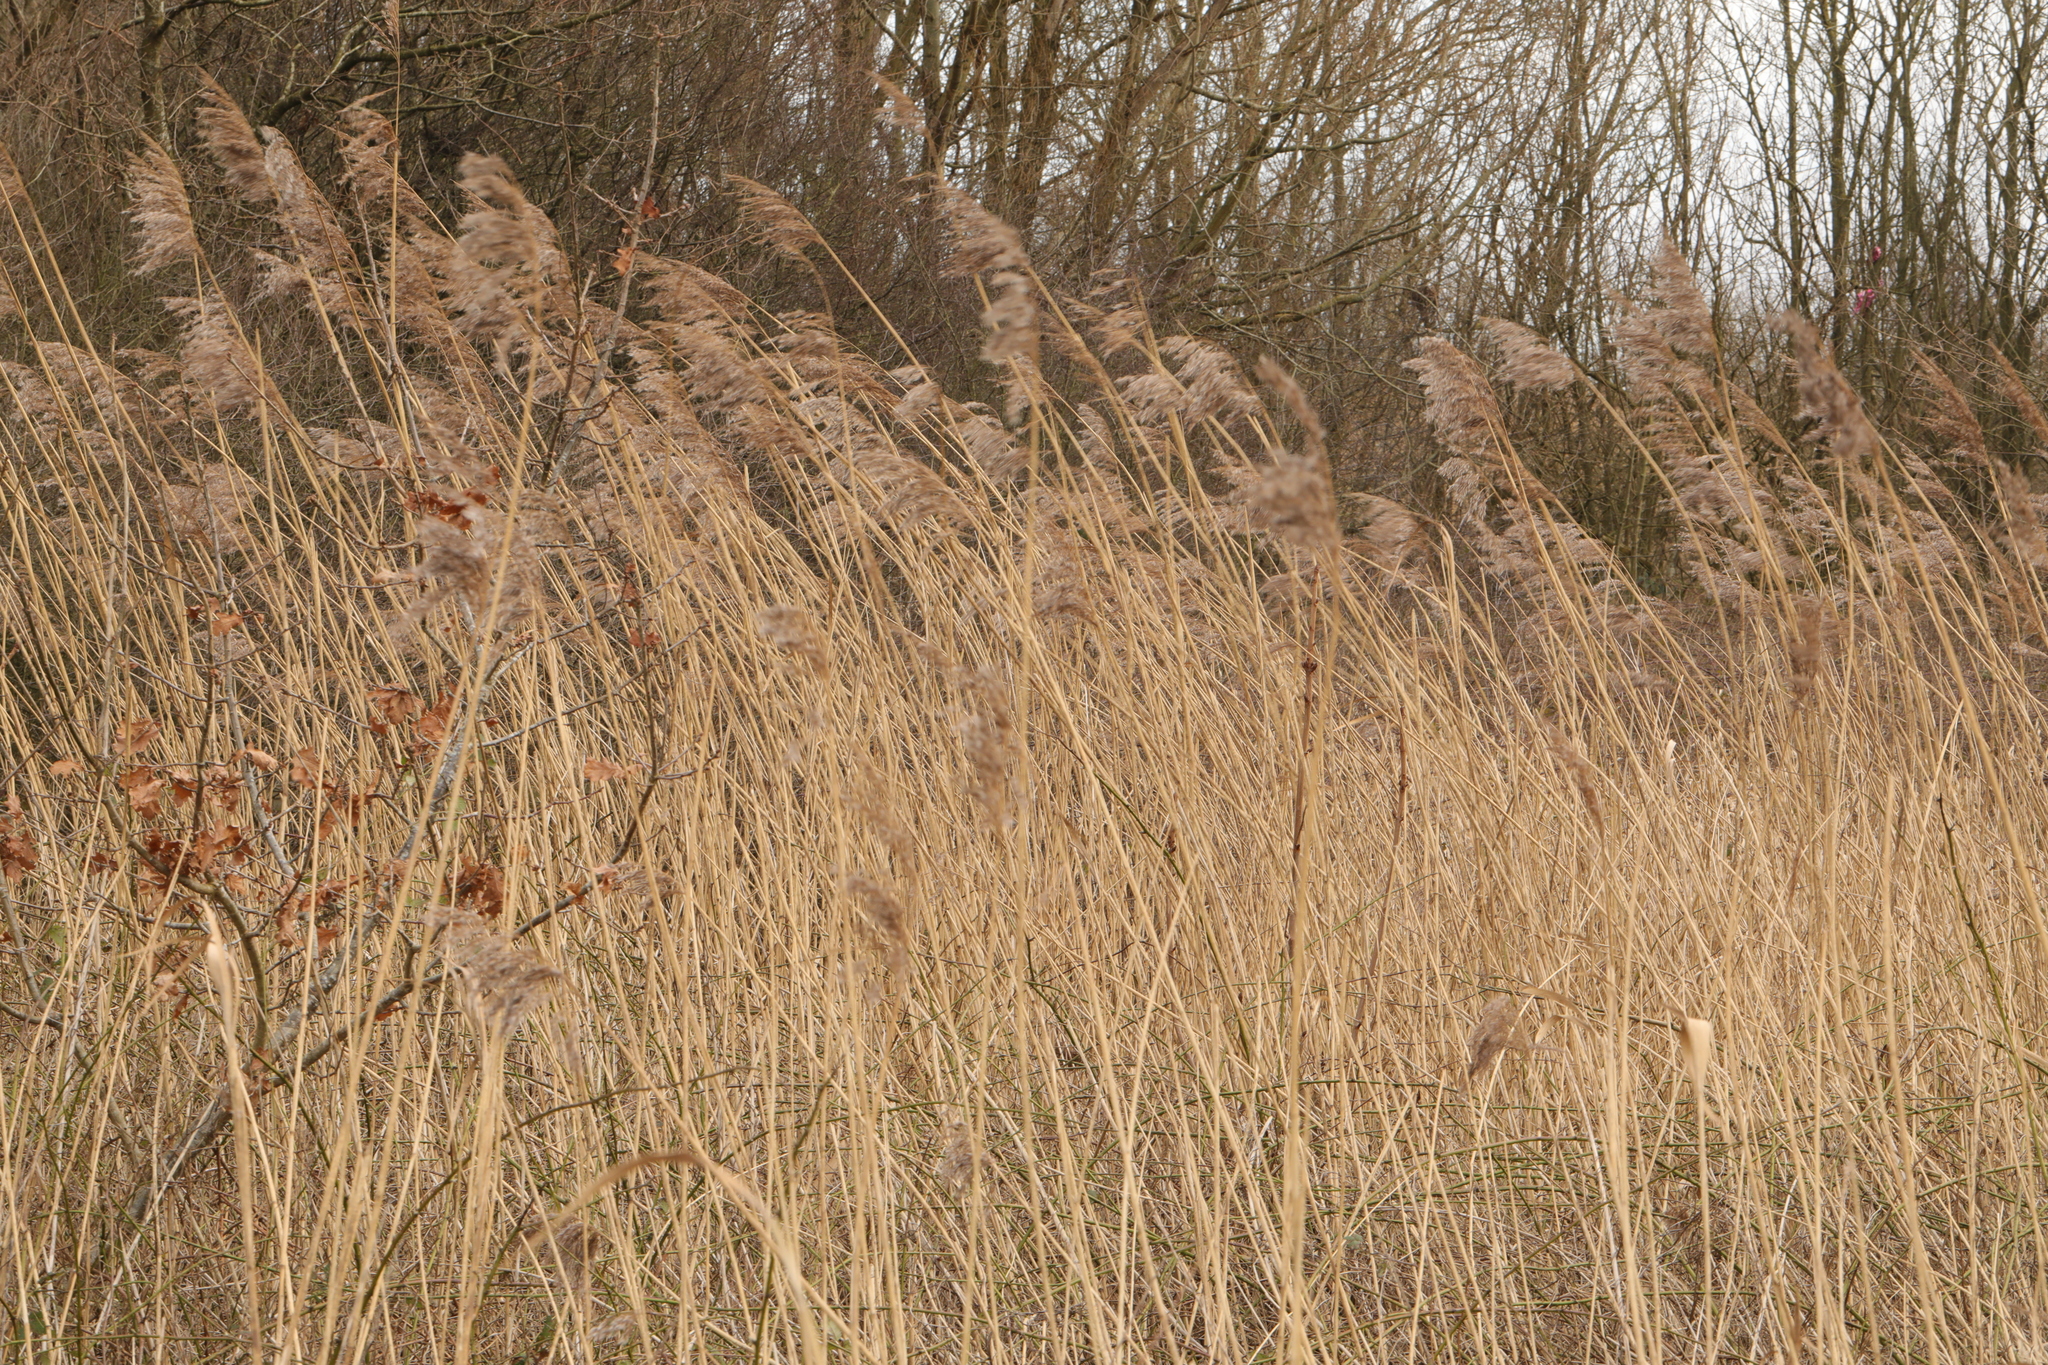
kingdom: Plantae
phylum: Tracheophyta
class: Liliopsida
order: Poales
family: Poaceae
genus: Phragmites
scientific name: Phragmites australis
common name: Common reed
